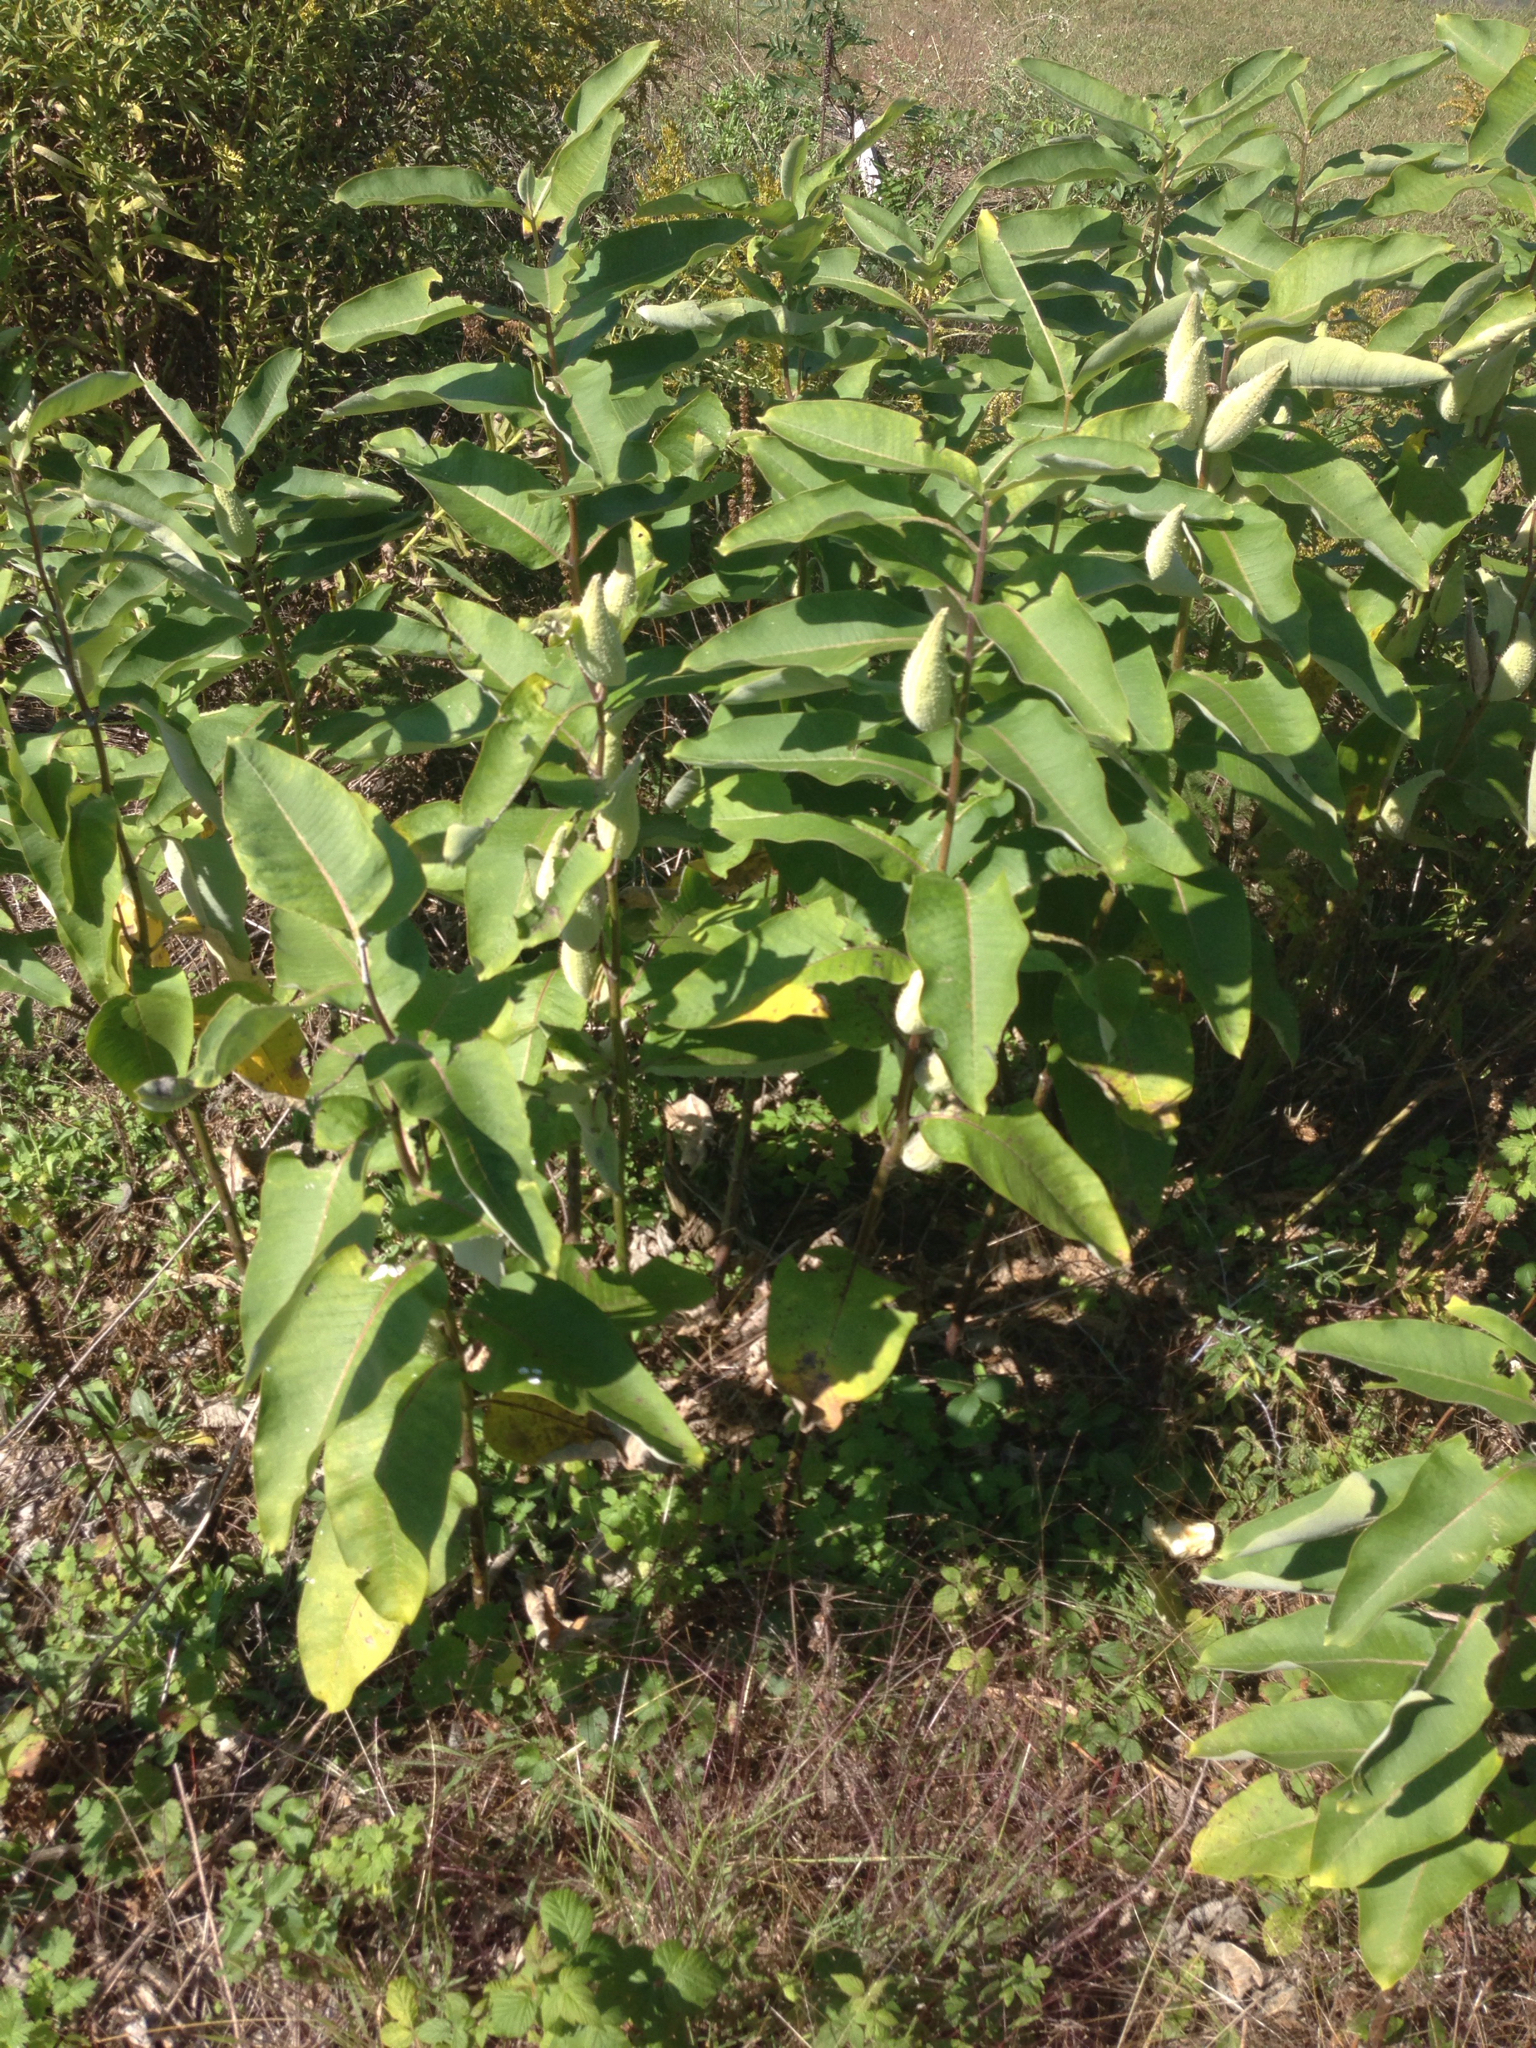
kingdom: Plantae
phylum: Tracheophyta
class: Magnoliopsida
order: Gentianales
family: Apocynaceae
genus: Asclepias
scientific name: Asclepias syriaca
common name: Common milkweed
